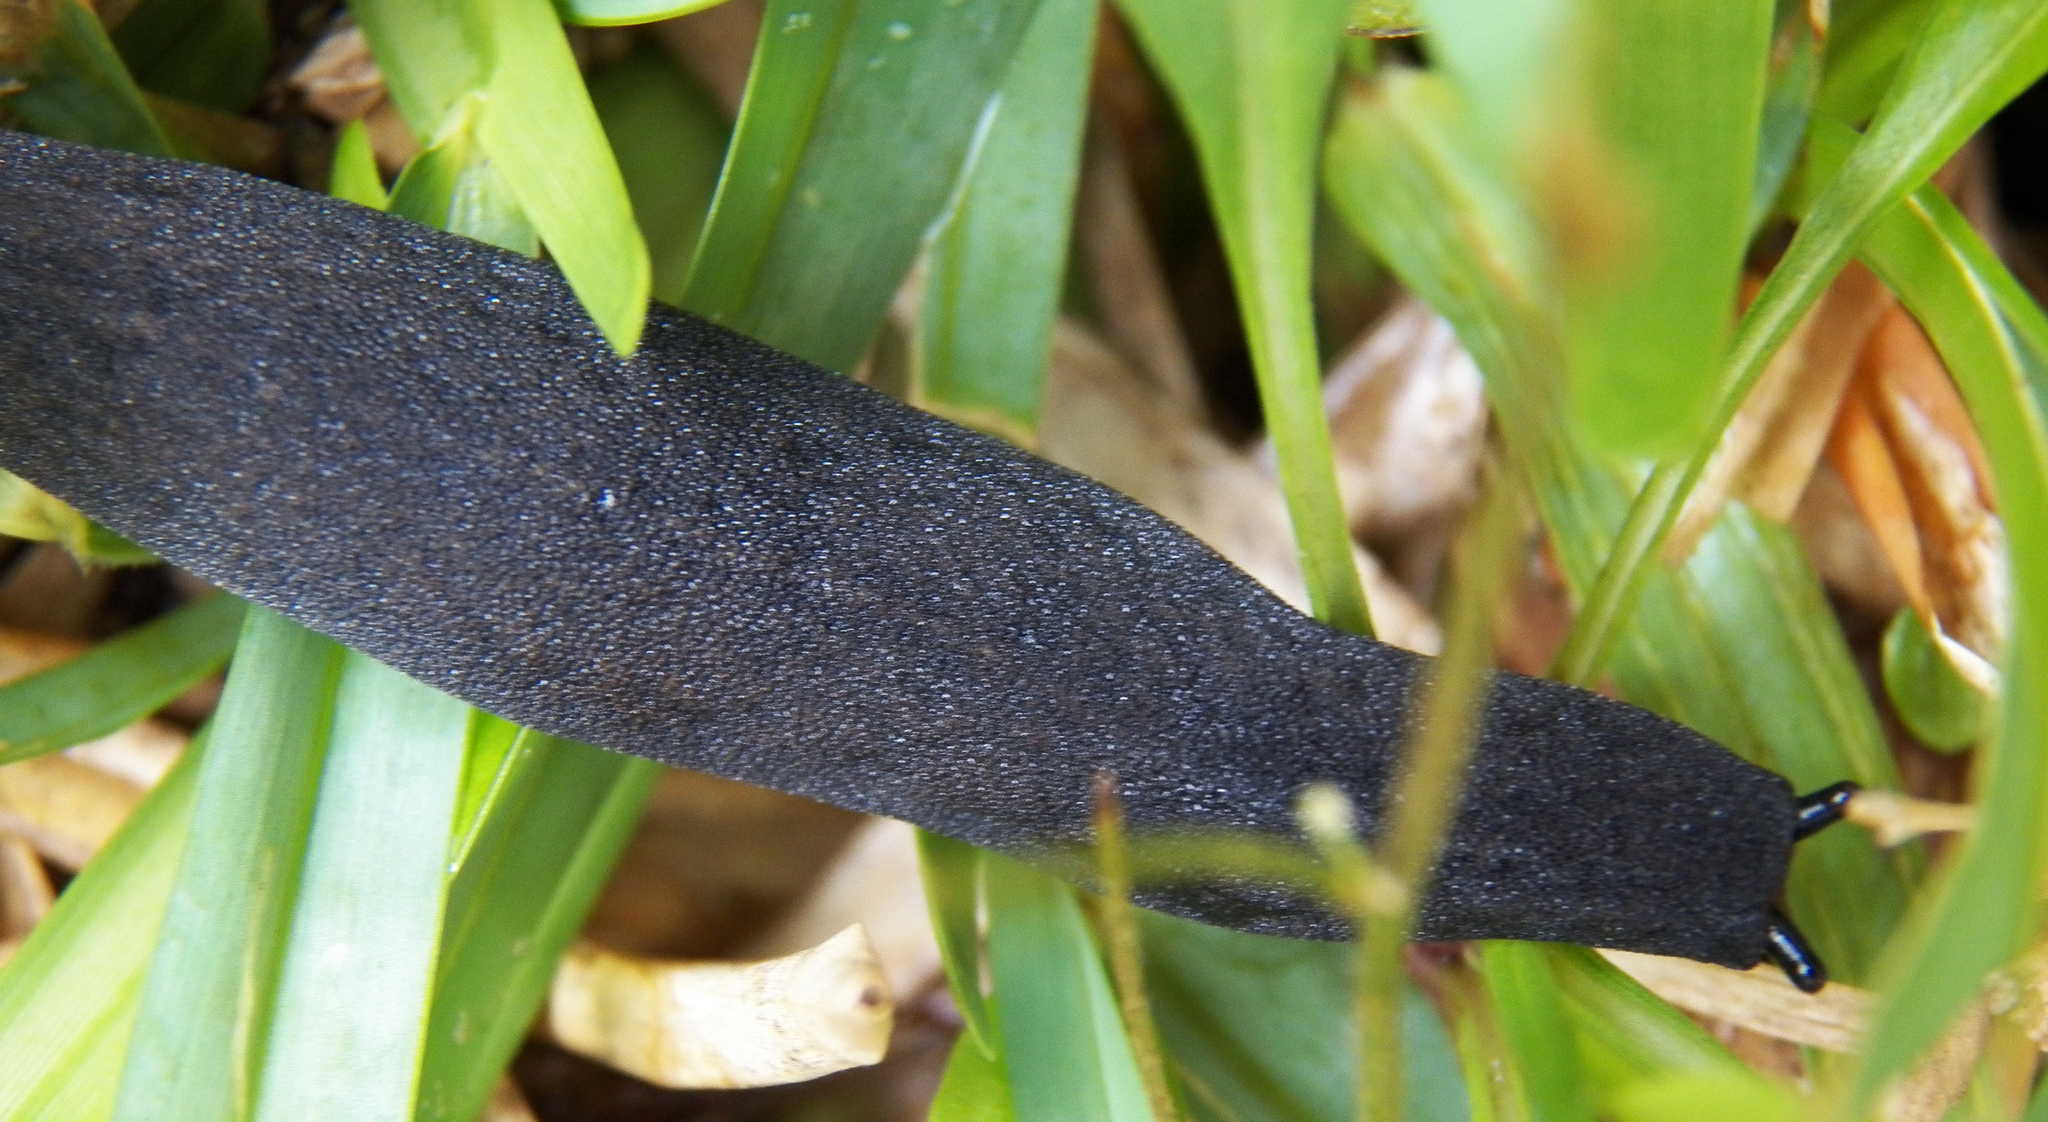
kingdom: Animalia
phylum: Mollusca
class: Gastropoda
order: Systellommatophora
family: Veronicellidae
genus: Belocaulus
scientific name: Belocaulus angustipes
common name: Black velvet leatherleaf slug
